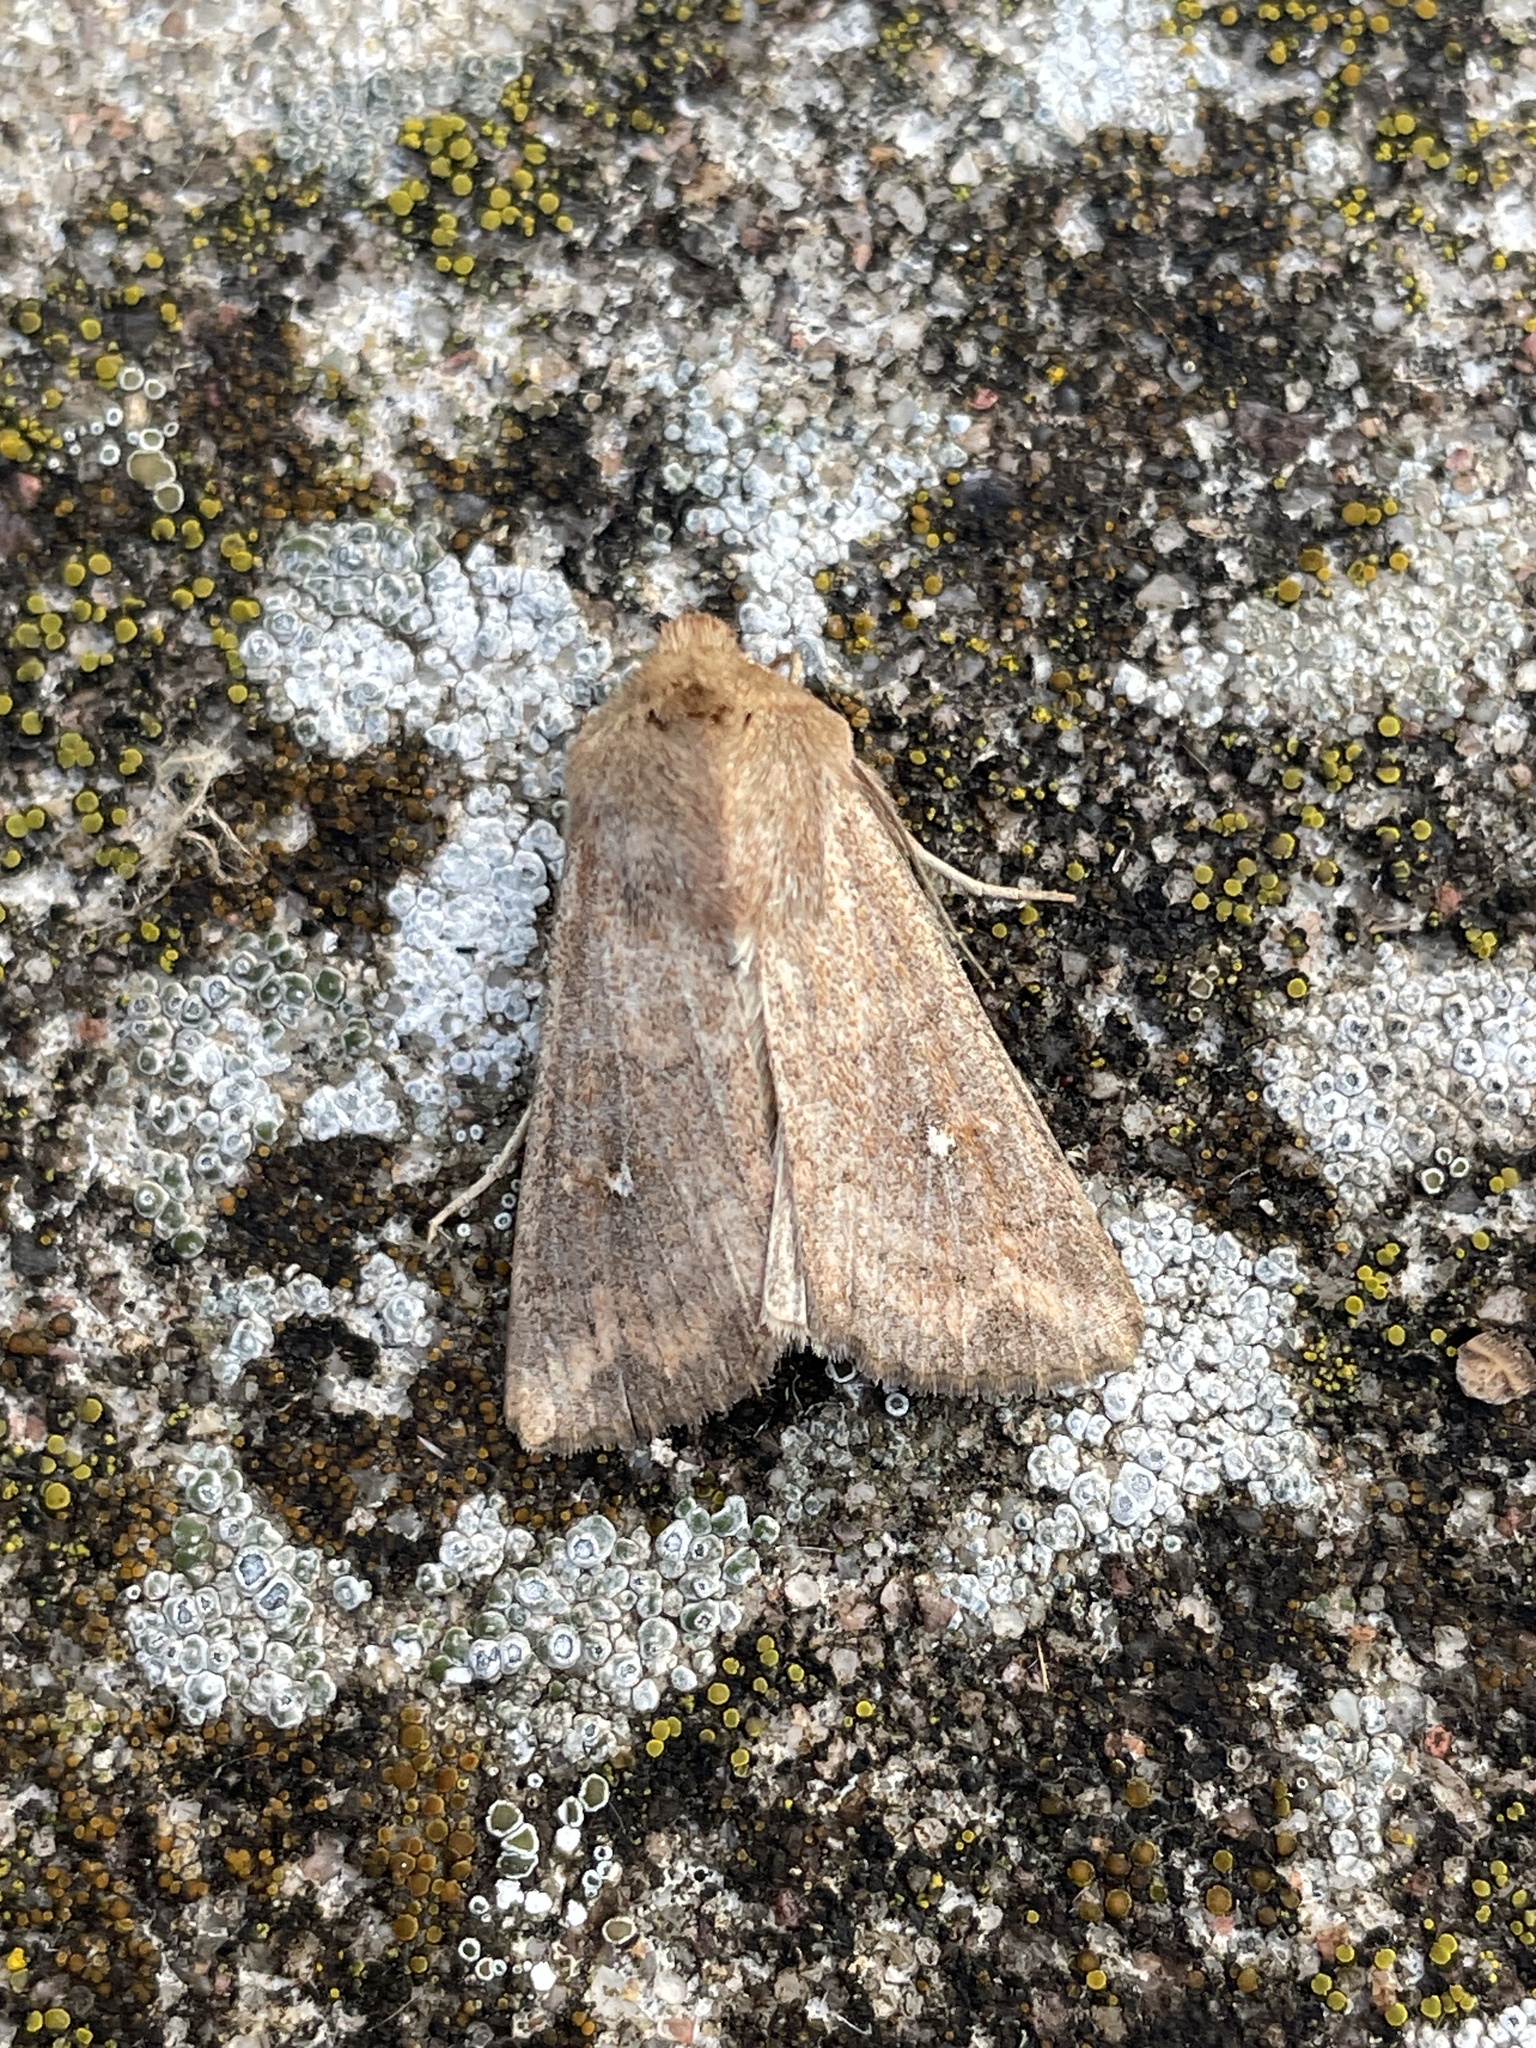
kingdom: Animalia
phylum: Arthropoda
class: Insecta
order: Lepidoptera
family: Noctuidae
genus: Mythimna
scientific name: Mythimna albipuncta
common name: White-point
